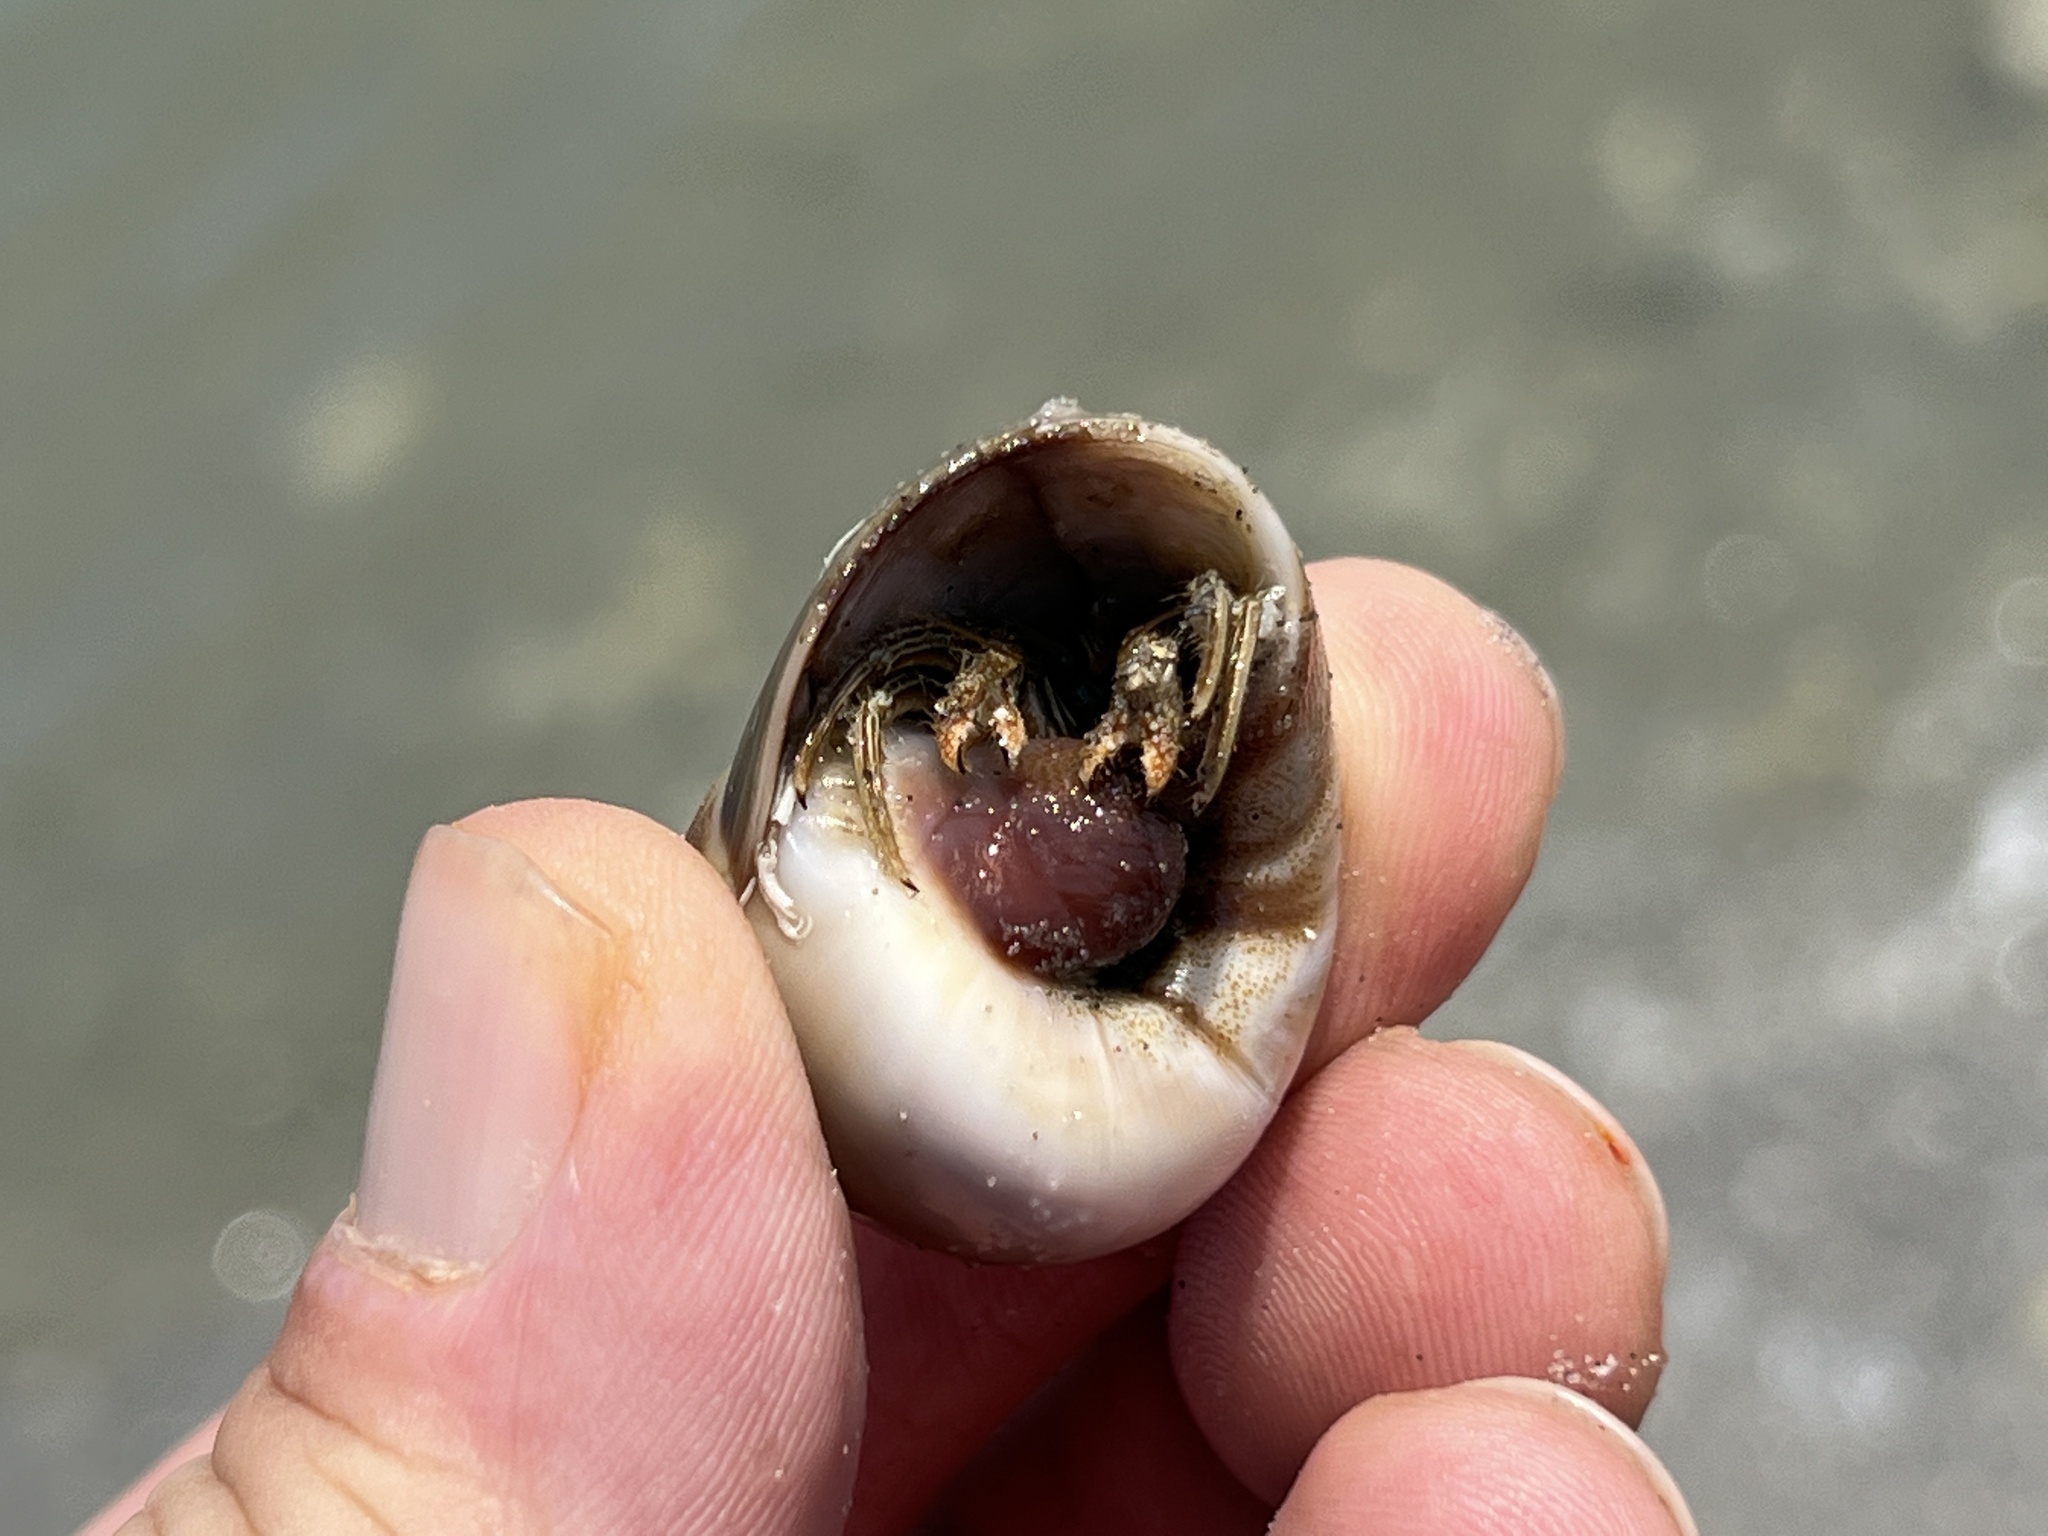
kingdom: Animalia
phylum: Arthropoda
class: Malacostraca
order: Decapoda
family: Diogenidae
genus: Clibanarius
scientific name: Clibanarius vittatus
